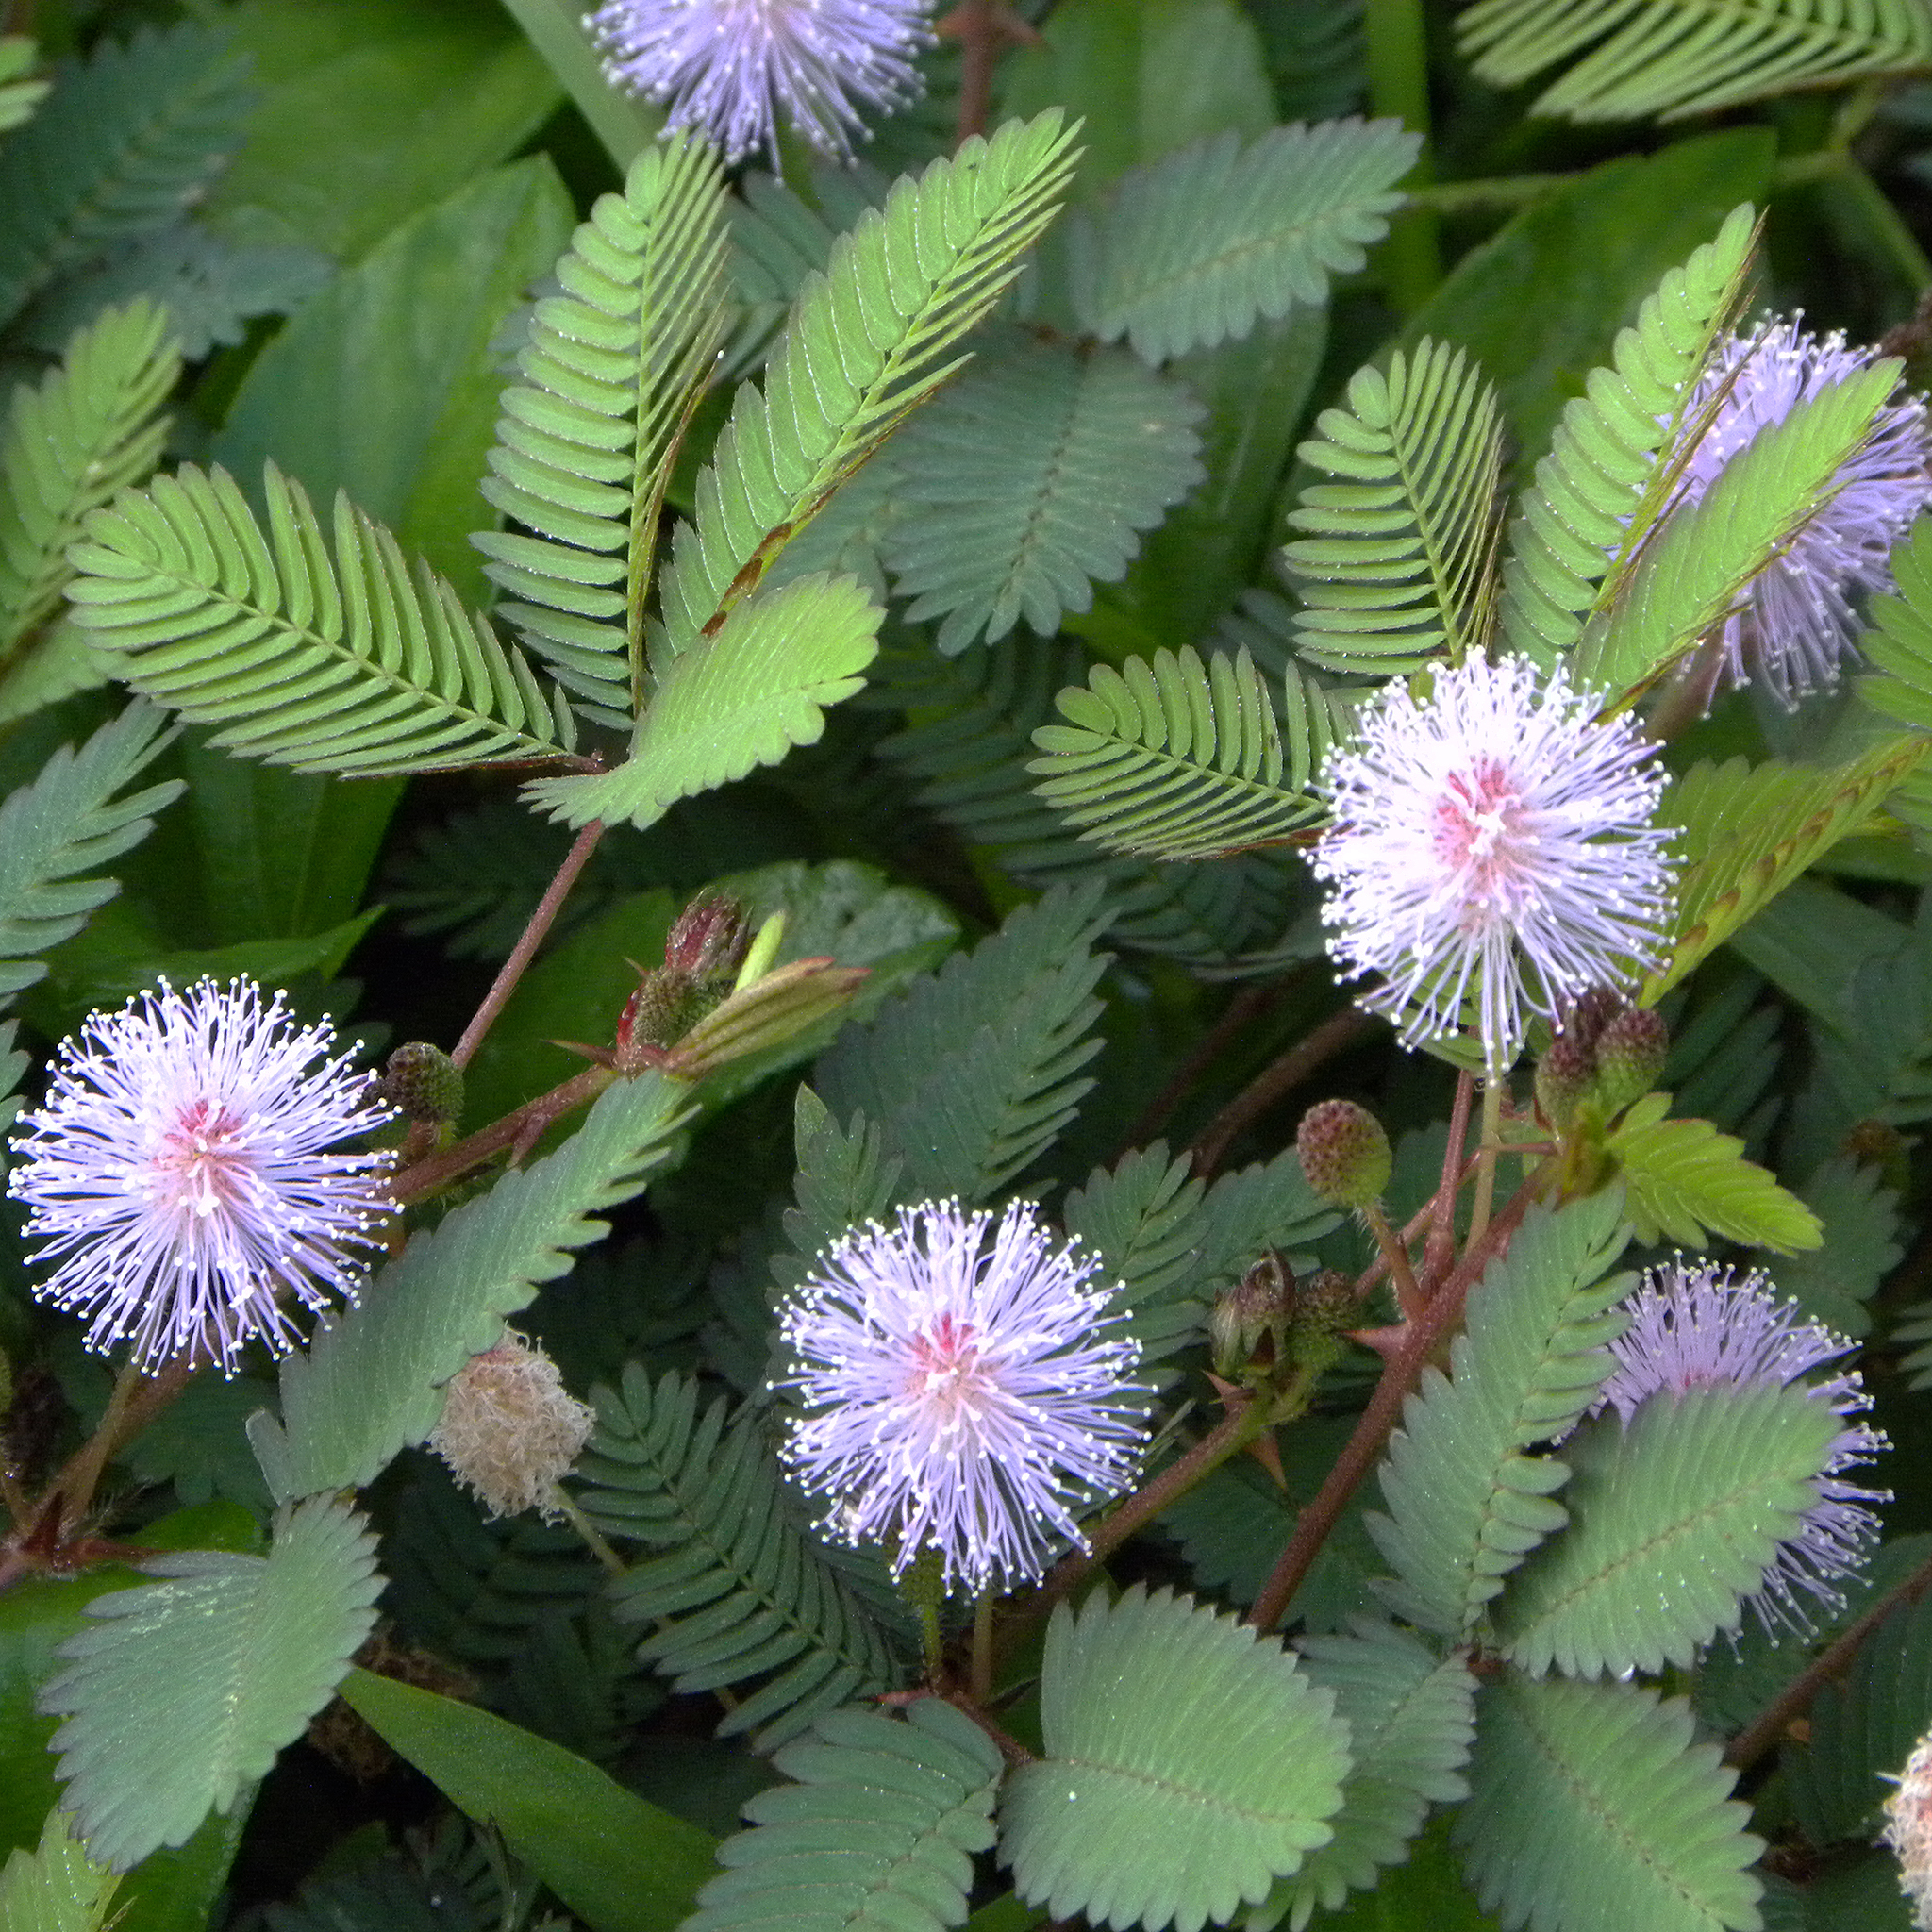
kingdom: Plantae
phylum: Tracheophyta
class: Magnoliopsida
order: Fabales
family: Fabaceae
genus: Mimosa
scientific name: Mimosa pudica
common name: Sensitive plant
